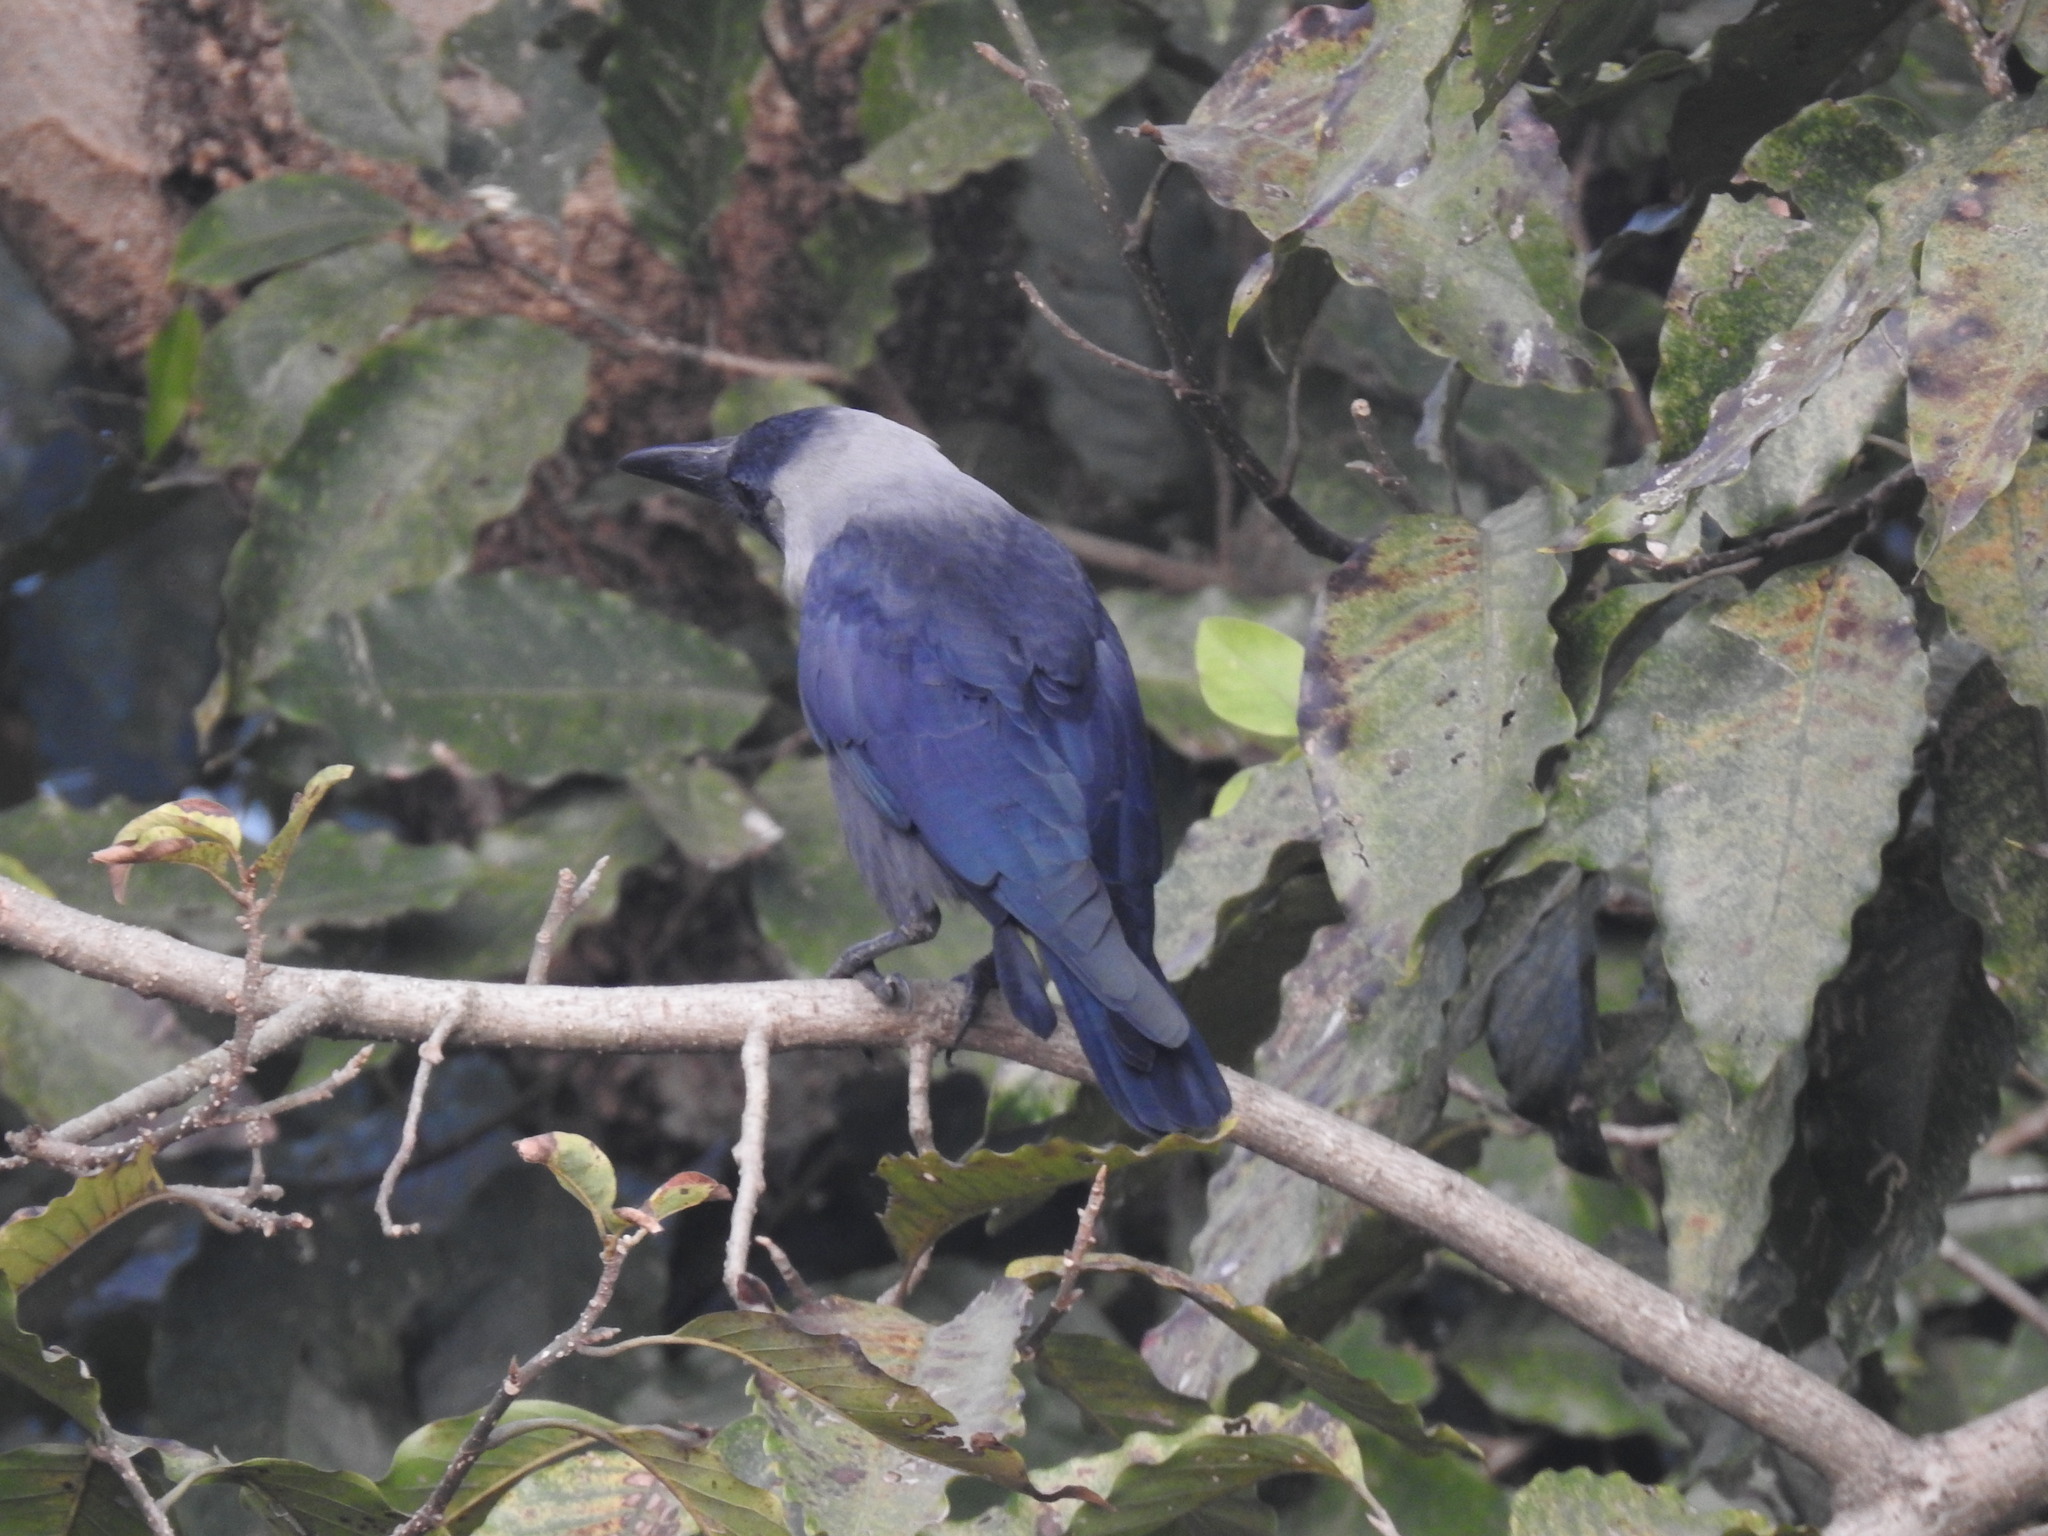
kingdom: Animalia
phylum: Chordata
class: Aves
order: Passeriformes
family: Corvidae
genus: Corvus
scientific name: Corvus splendens
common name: House crow
